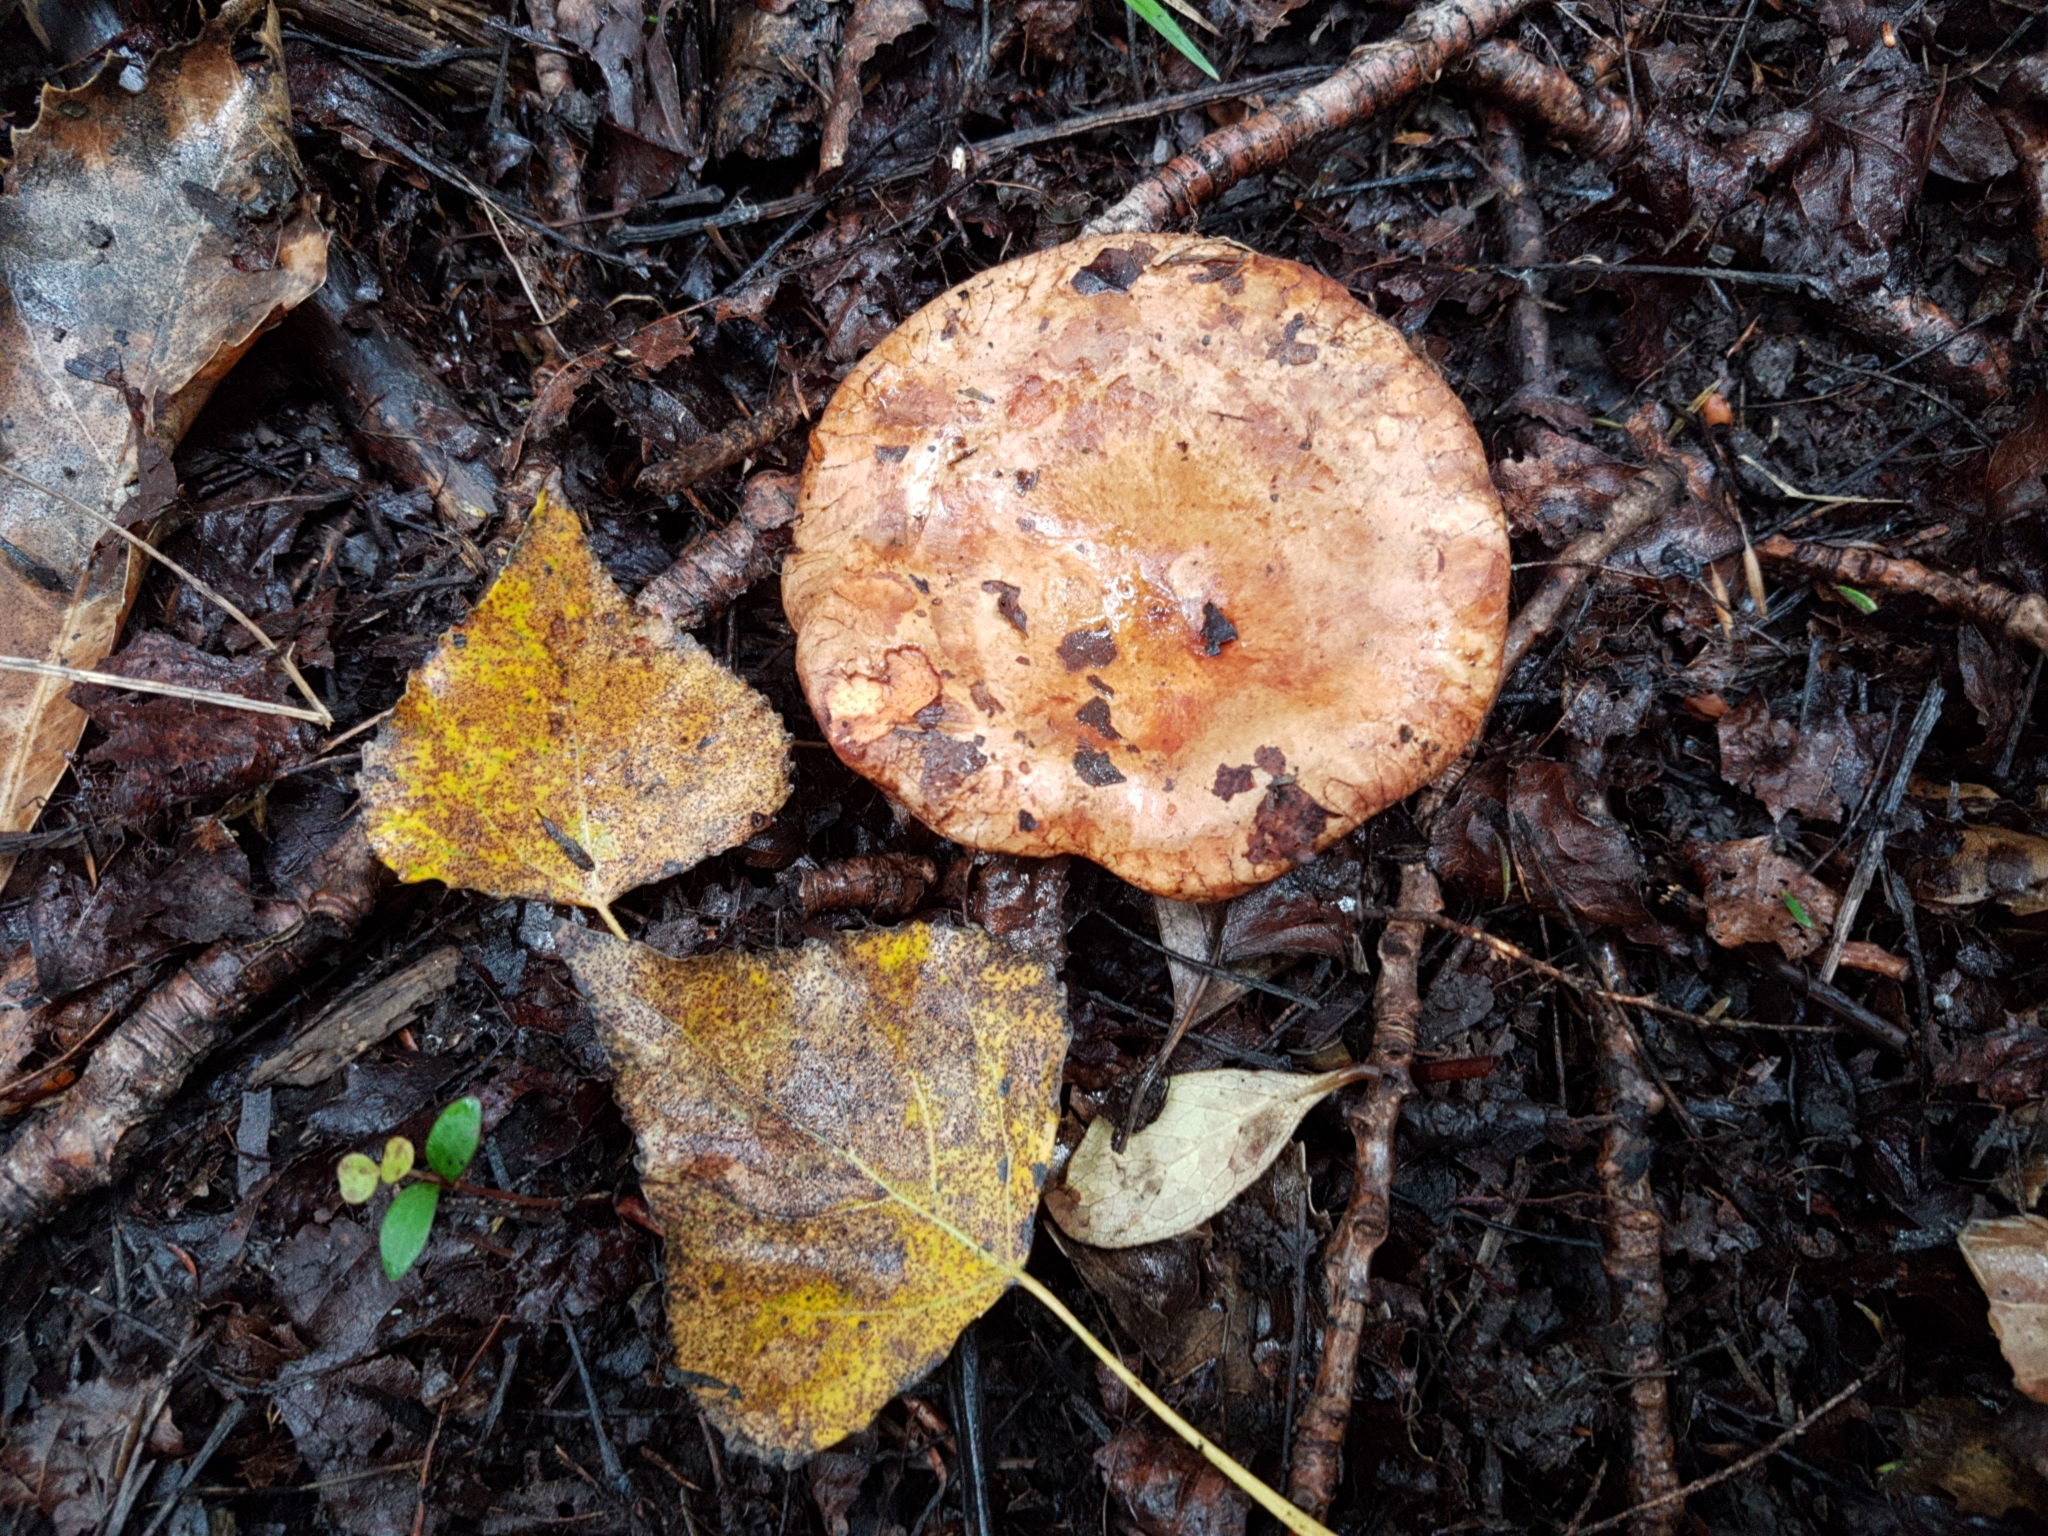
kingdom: Fungi
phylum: Basidiomycota
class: Agaricomycetes
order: Boletales
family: Paxillaceae
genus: Paxillus
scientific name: Paxillus ammoniavirescens
